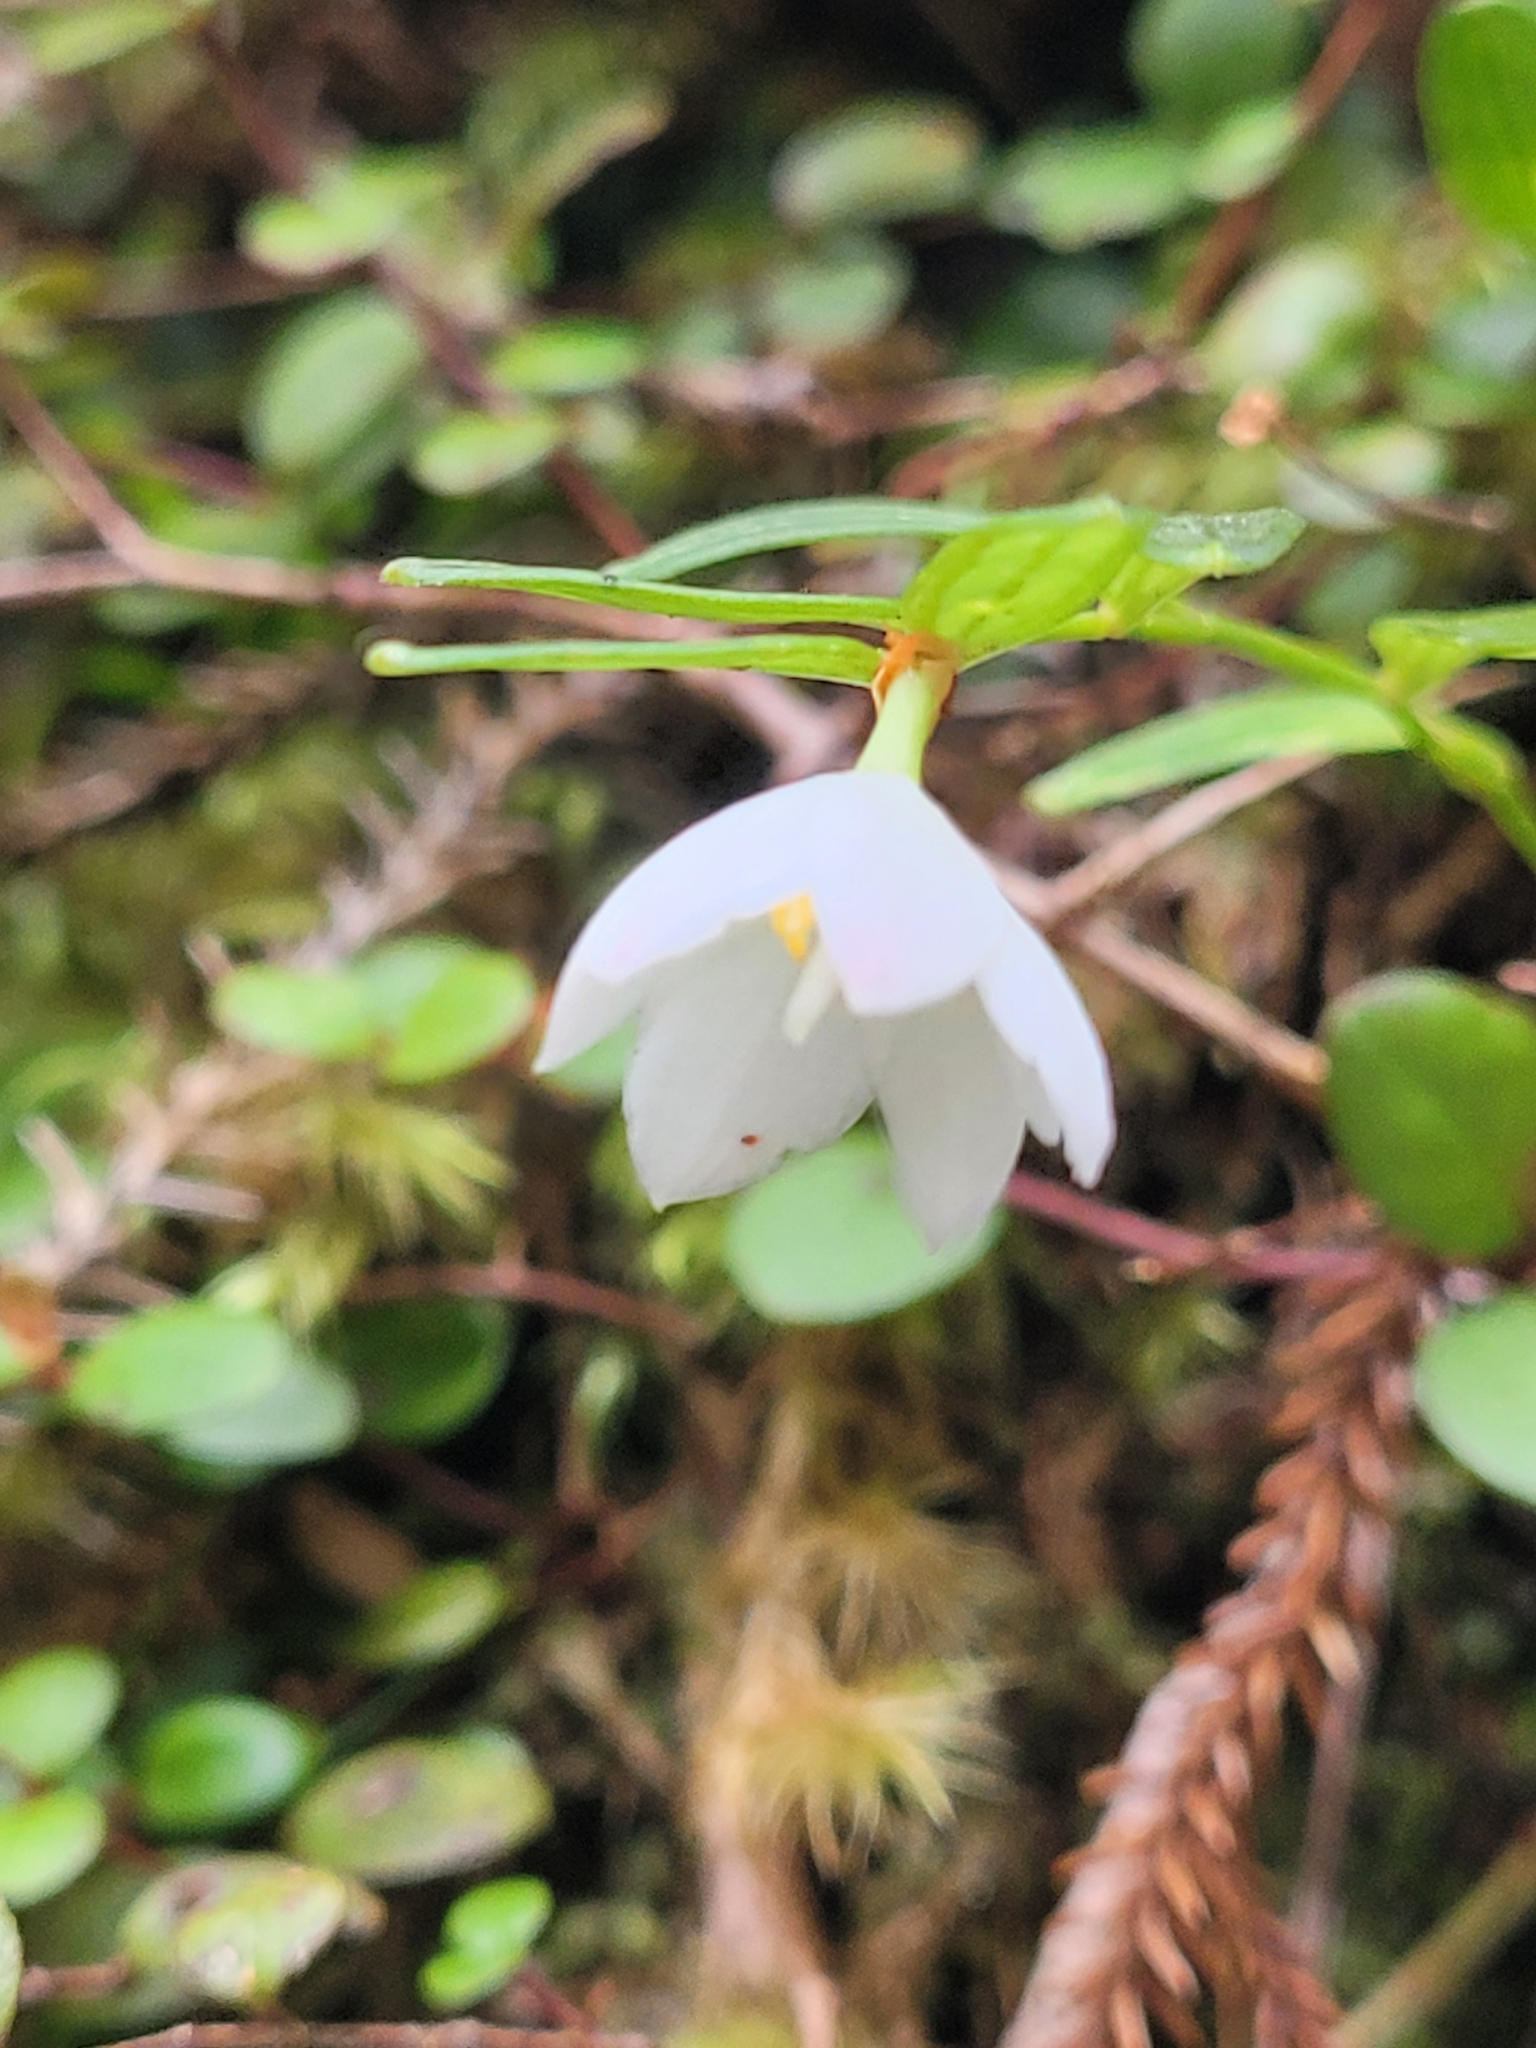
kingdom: Plantae
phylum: Tracheophyta
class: Liliopsida
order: Liliales
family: Alstroemeriaceae
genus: Luzuriaga
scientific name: Luzuriaga parviflora
